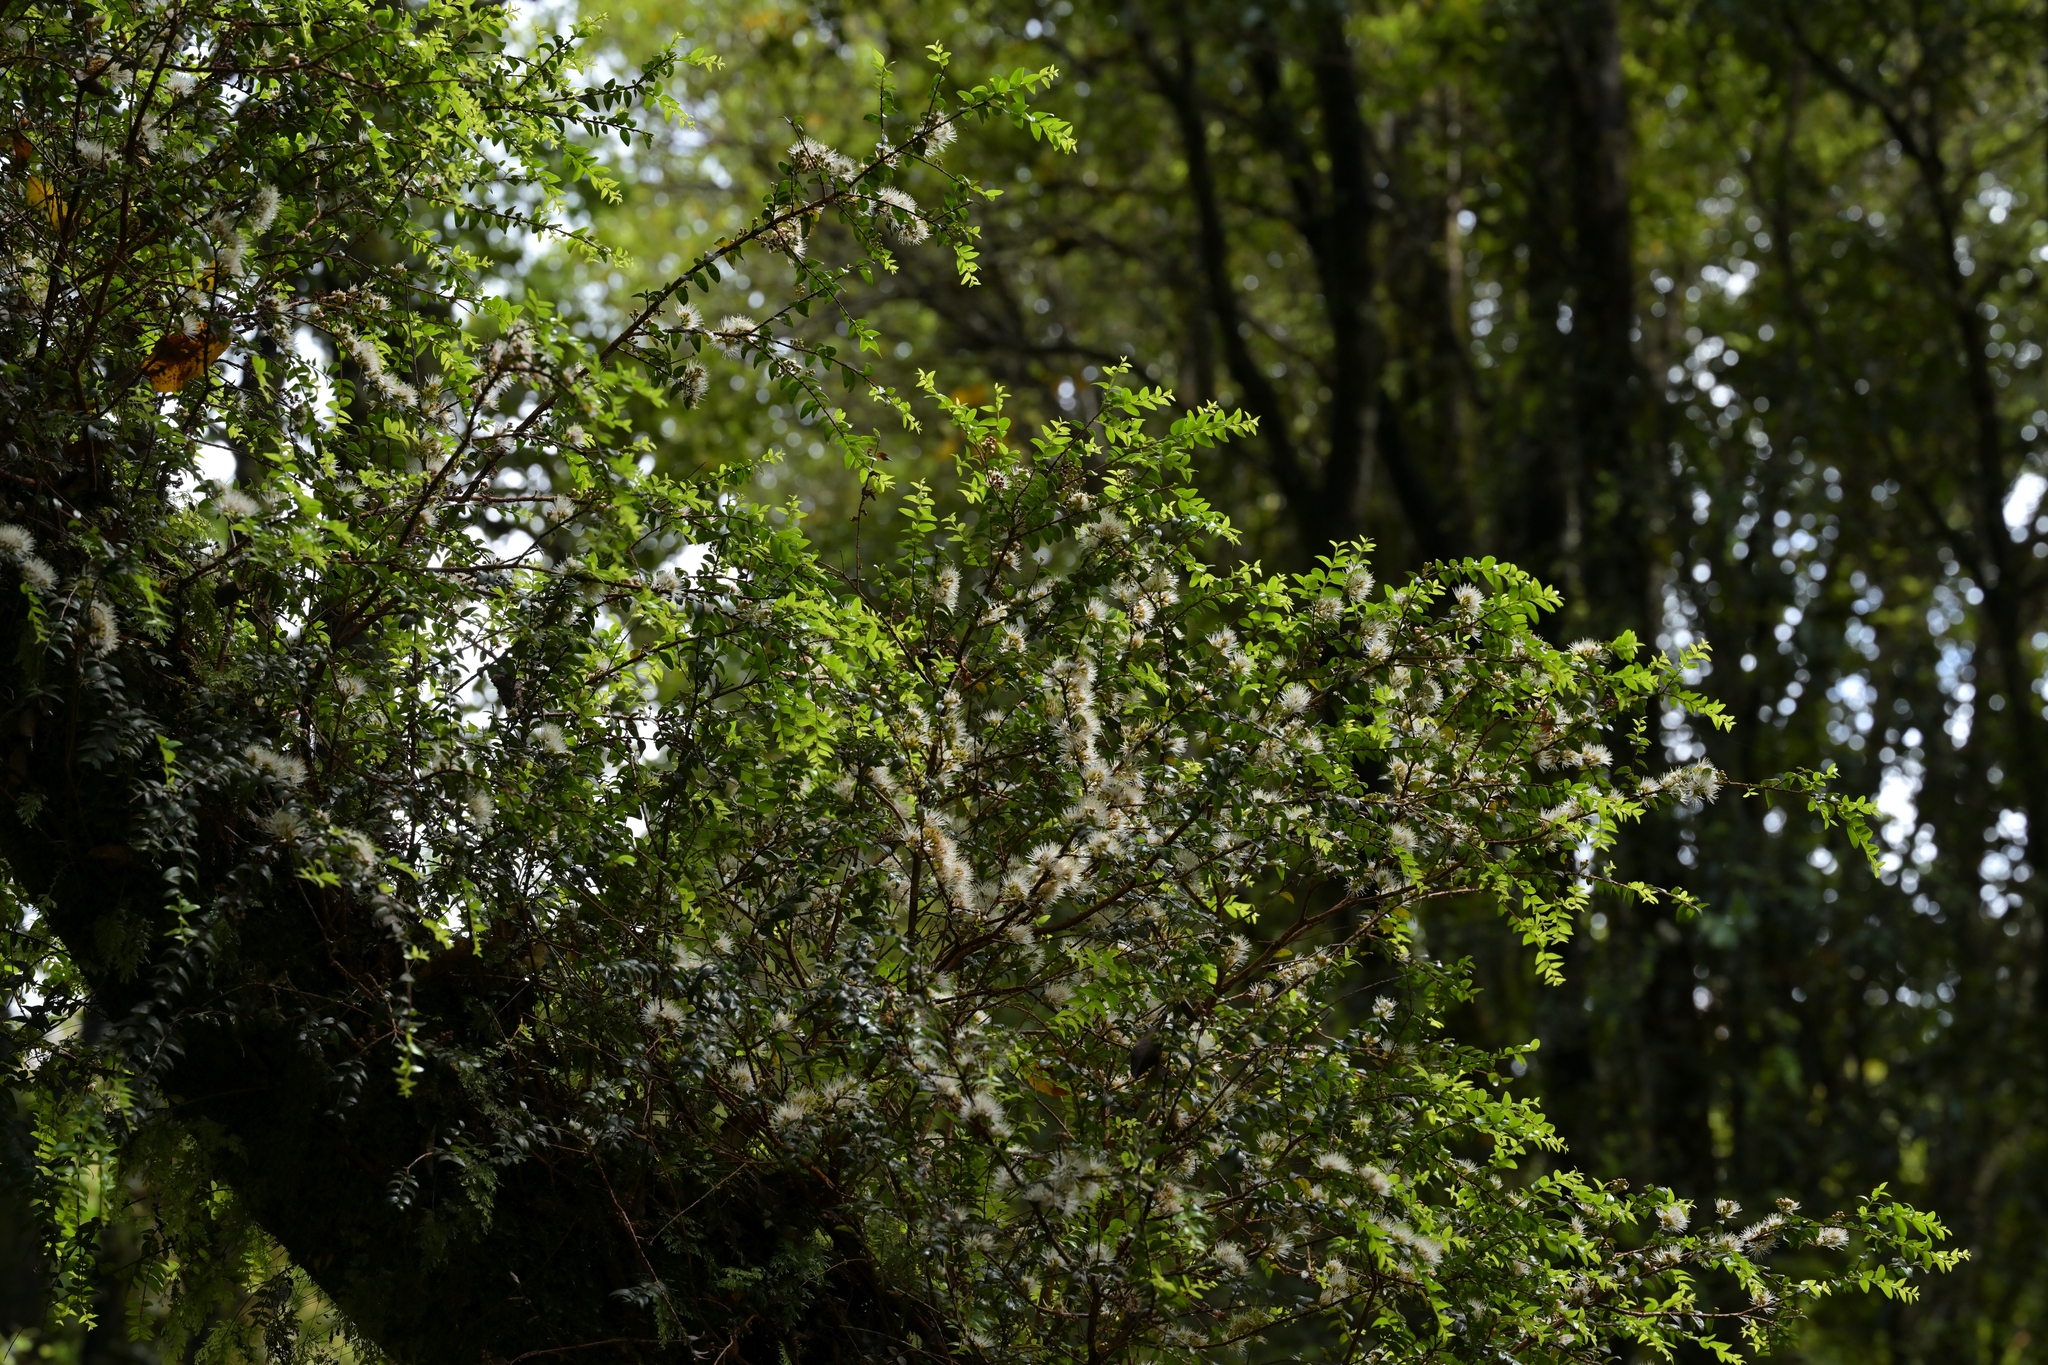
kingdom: Plantae
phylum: Tracheophyta
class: Magnoliopsida
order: Myrtales
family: Myrtaceae
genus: Metrosideros
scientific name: Metrosideros diffusa
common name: Small ratavine
